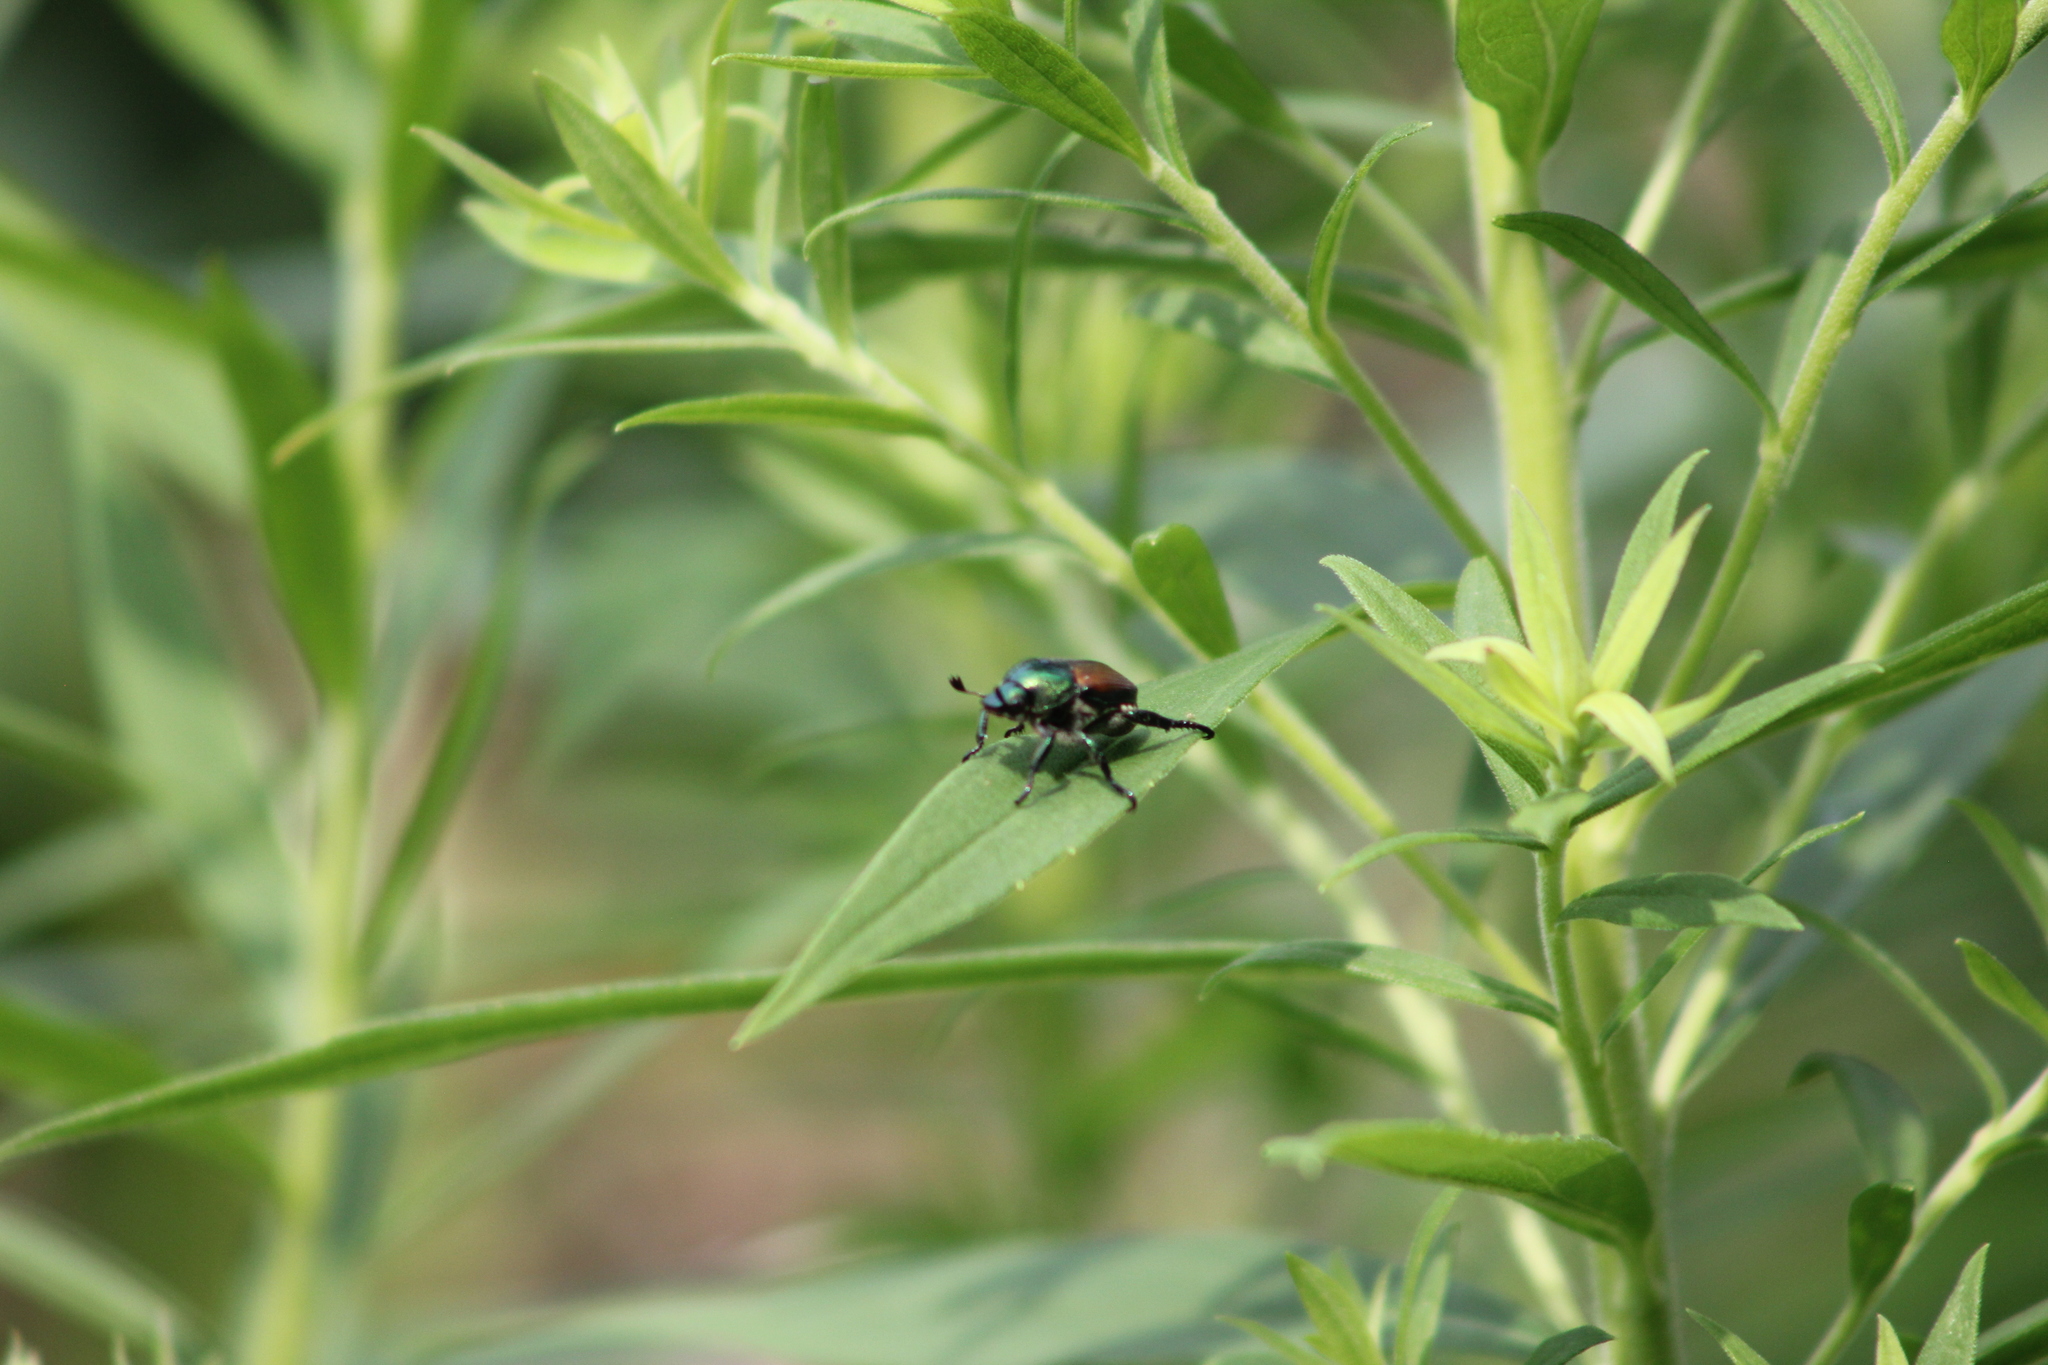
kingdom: Animalia
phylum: Arthropoda
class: Insecta
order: Coleoptera
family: Scarabaeidae
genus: Popillia
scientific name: Popillia japonica
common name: Japanese beetle
